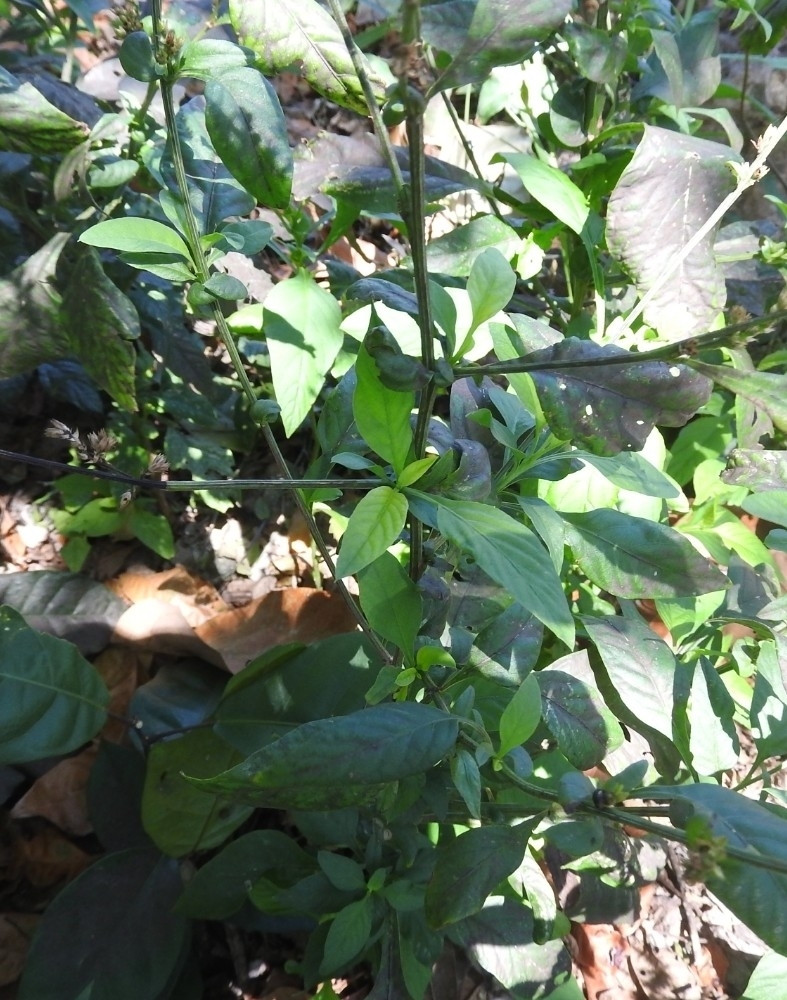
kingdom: Plantae
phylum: Tracheophyta
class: Magnoliopsida
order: Caryophyllales
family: Amaranthaceae
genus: Iresine
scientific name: Iresine diffusa
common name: Juba's-bush
